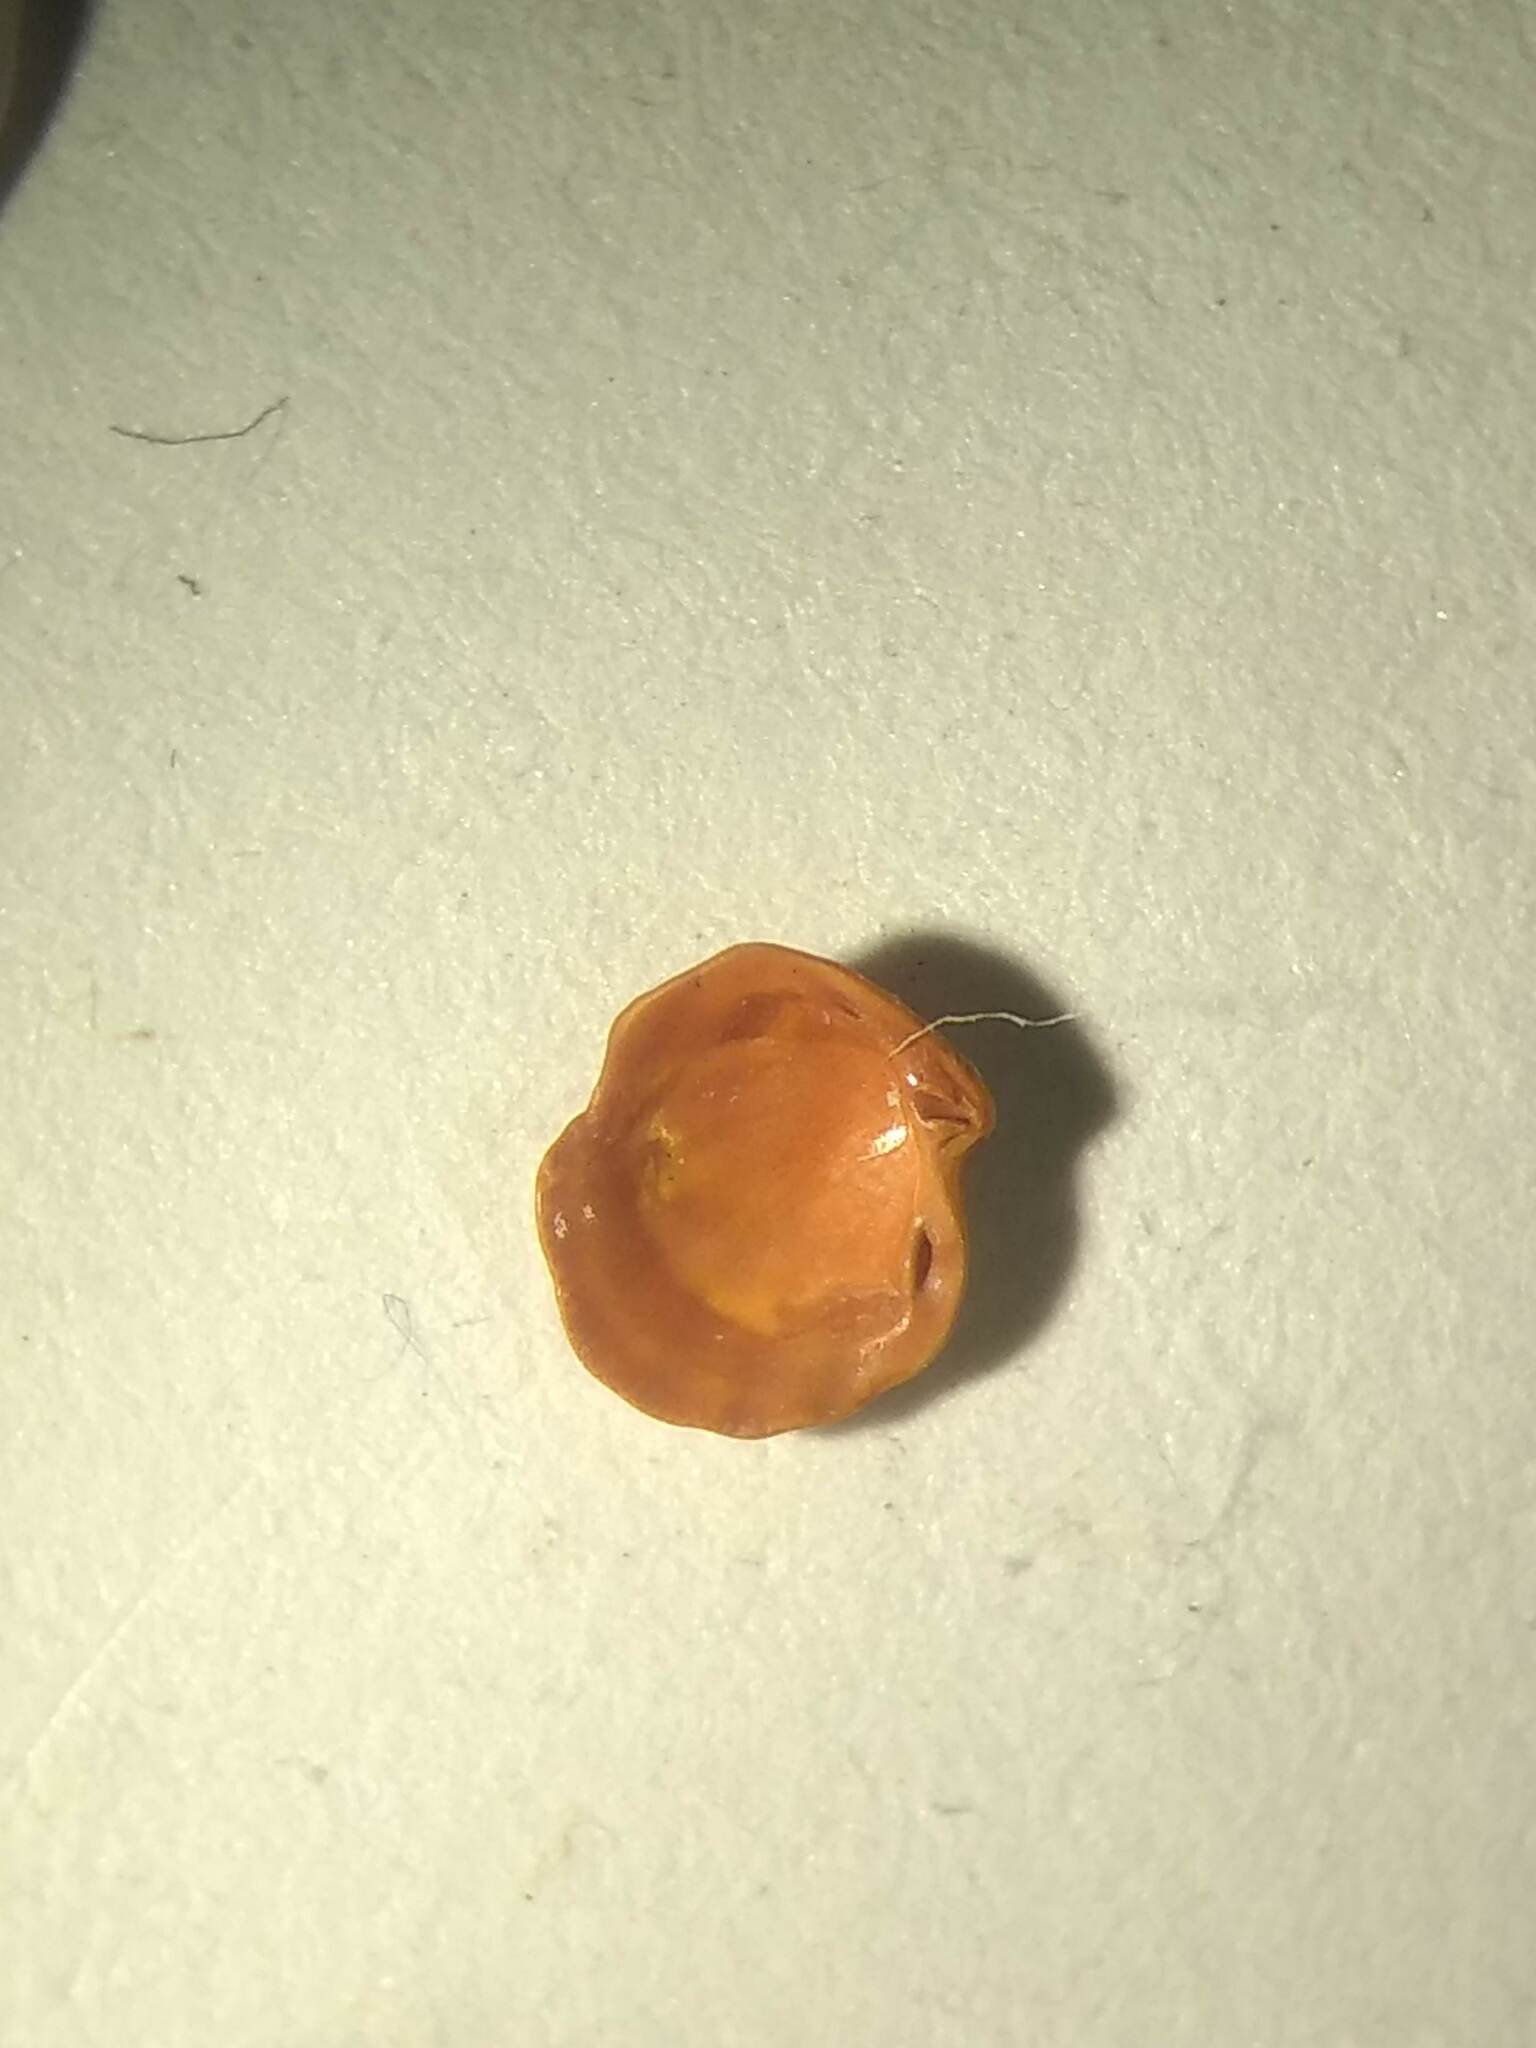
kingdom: Animalia
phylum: Mollusca
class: Bivalvia
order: Lucinida
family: Lucinidae
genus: Radiolucina
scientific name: Radiolucina amianta
